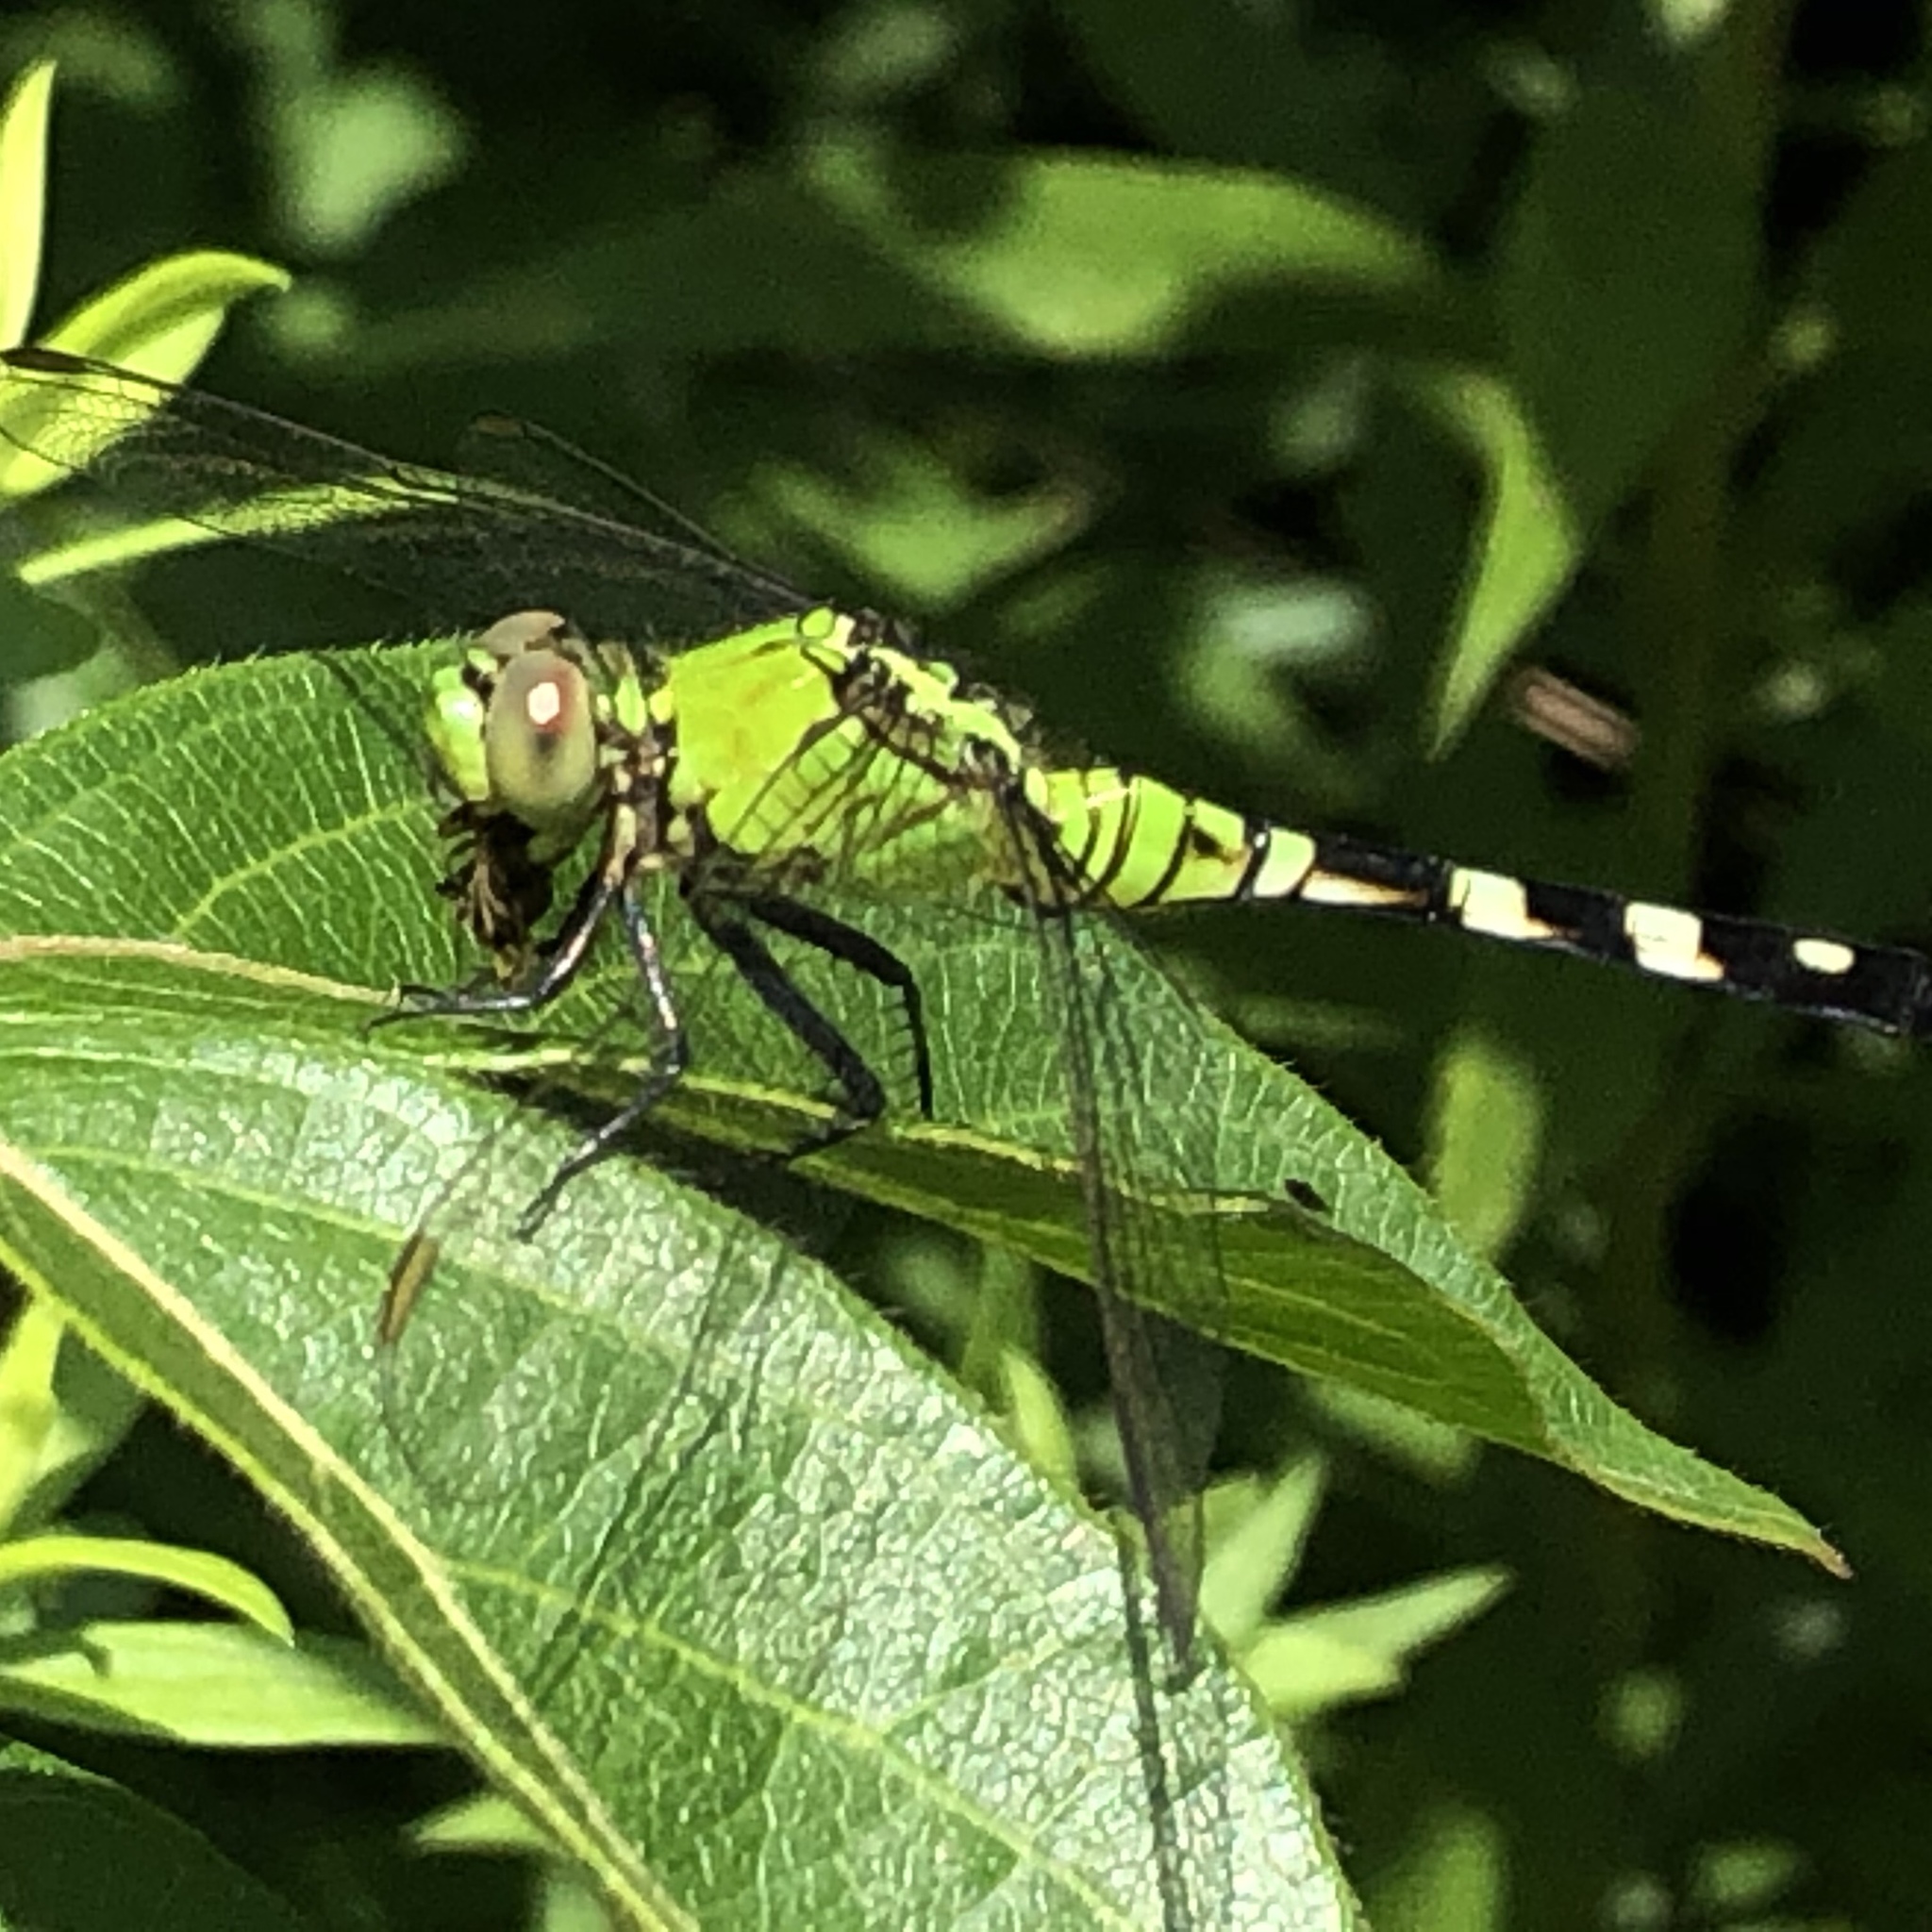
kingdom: Animalia
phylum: Arthropoda
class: Insecta
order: Odonata
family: Libellulidae
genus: Erythemis
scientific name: Erythemis simplicicollis
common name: Eastern pondhawk
